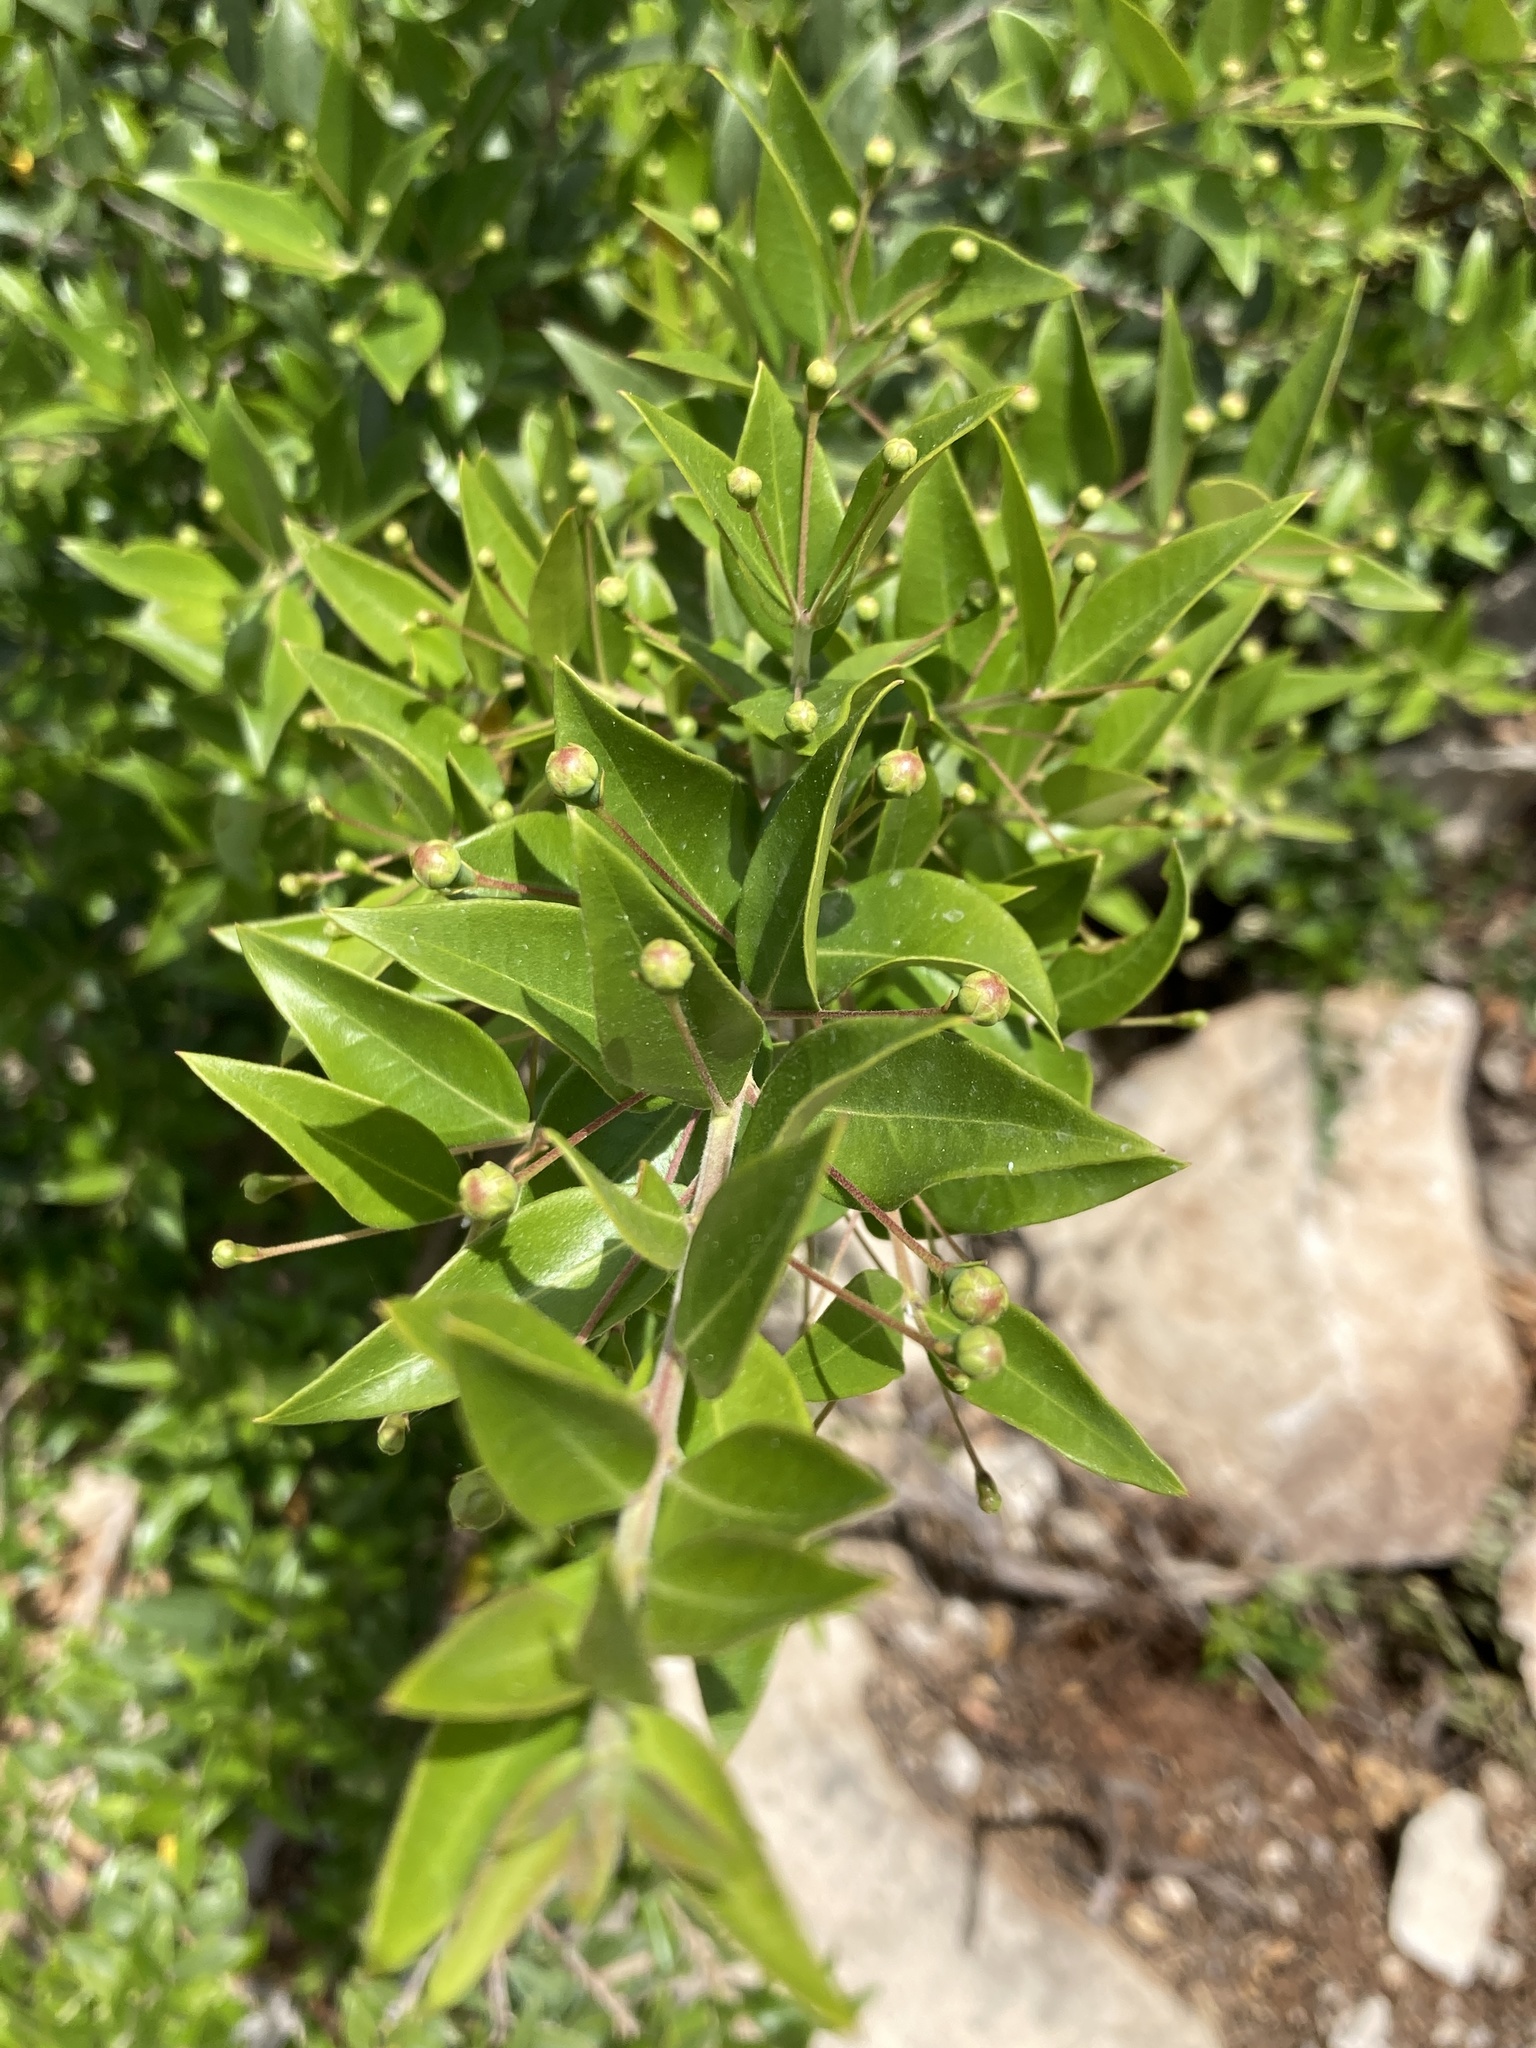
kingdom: Plantae
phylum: Tracheophyta
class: Magnoliopsida
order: Myrtales
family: Myrtaceae
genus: Myrtus
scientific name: Myrtus communis
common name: Myrtle
